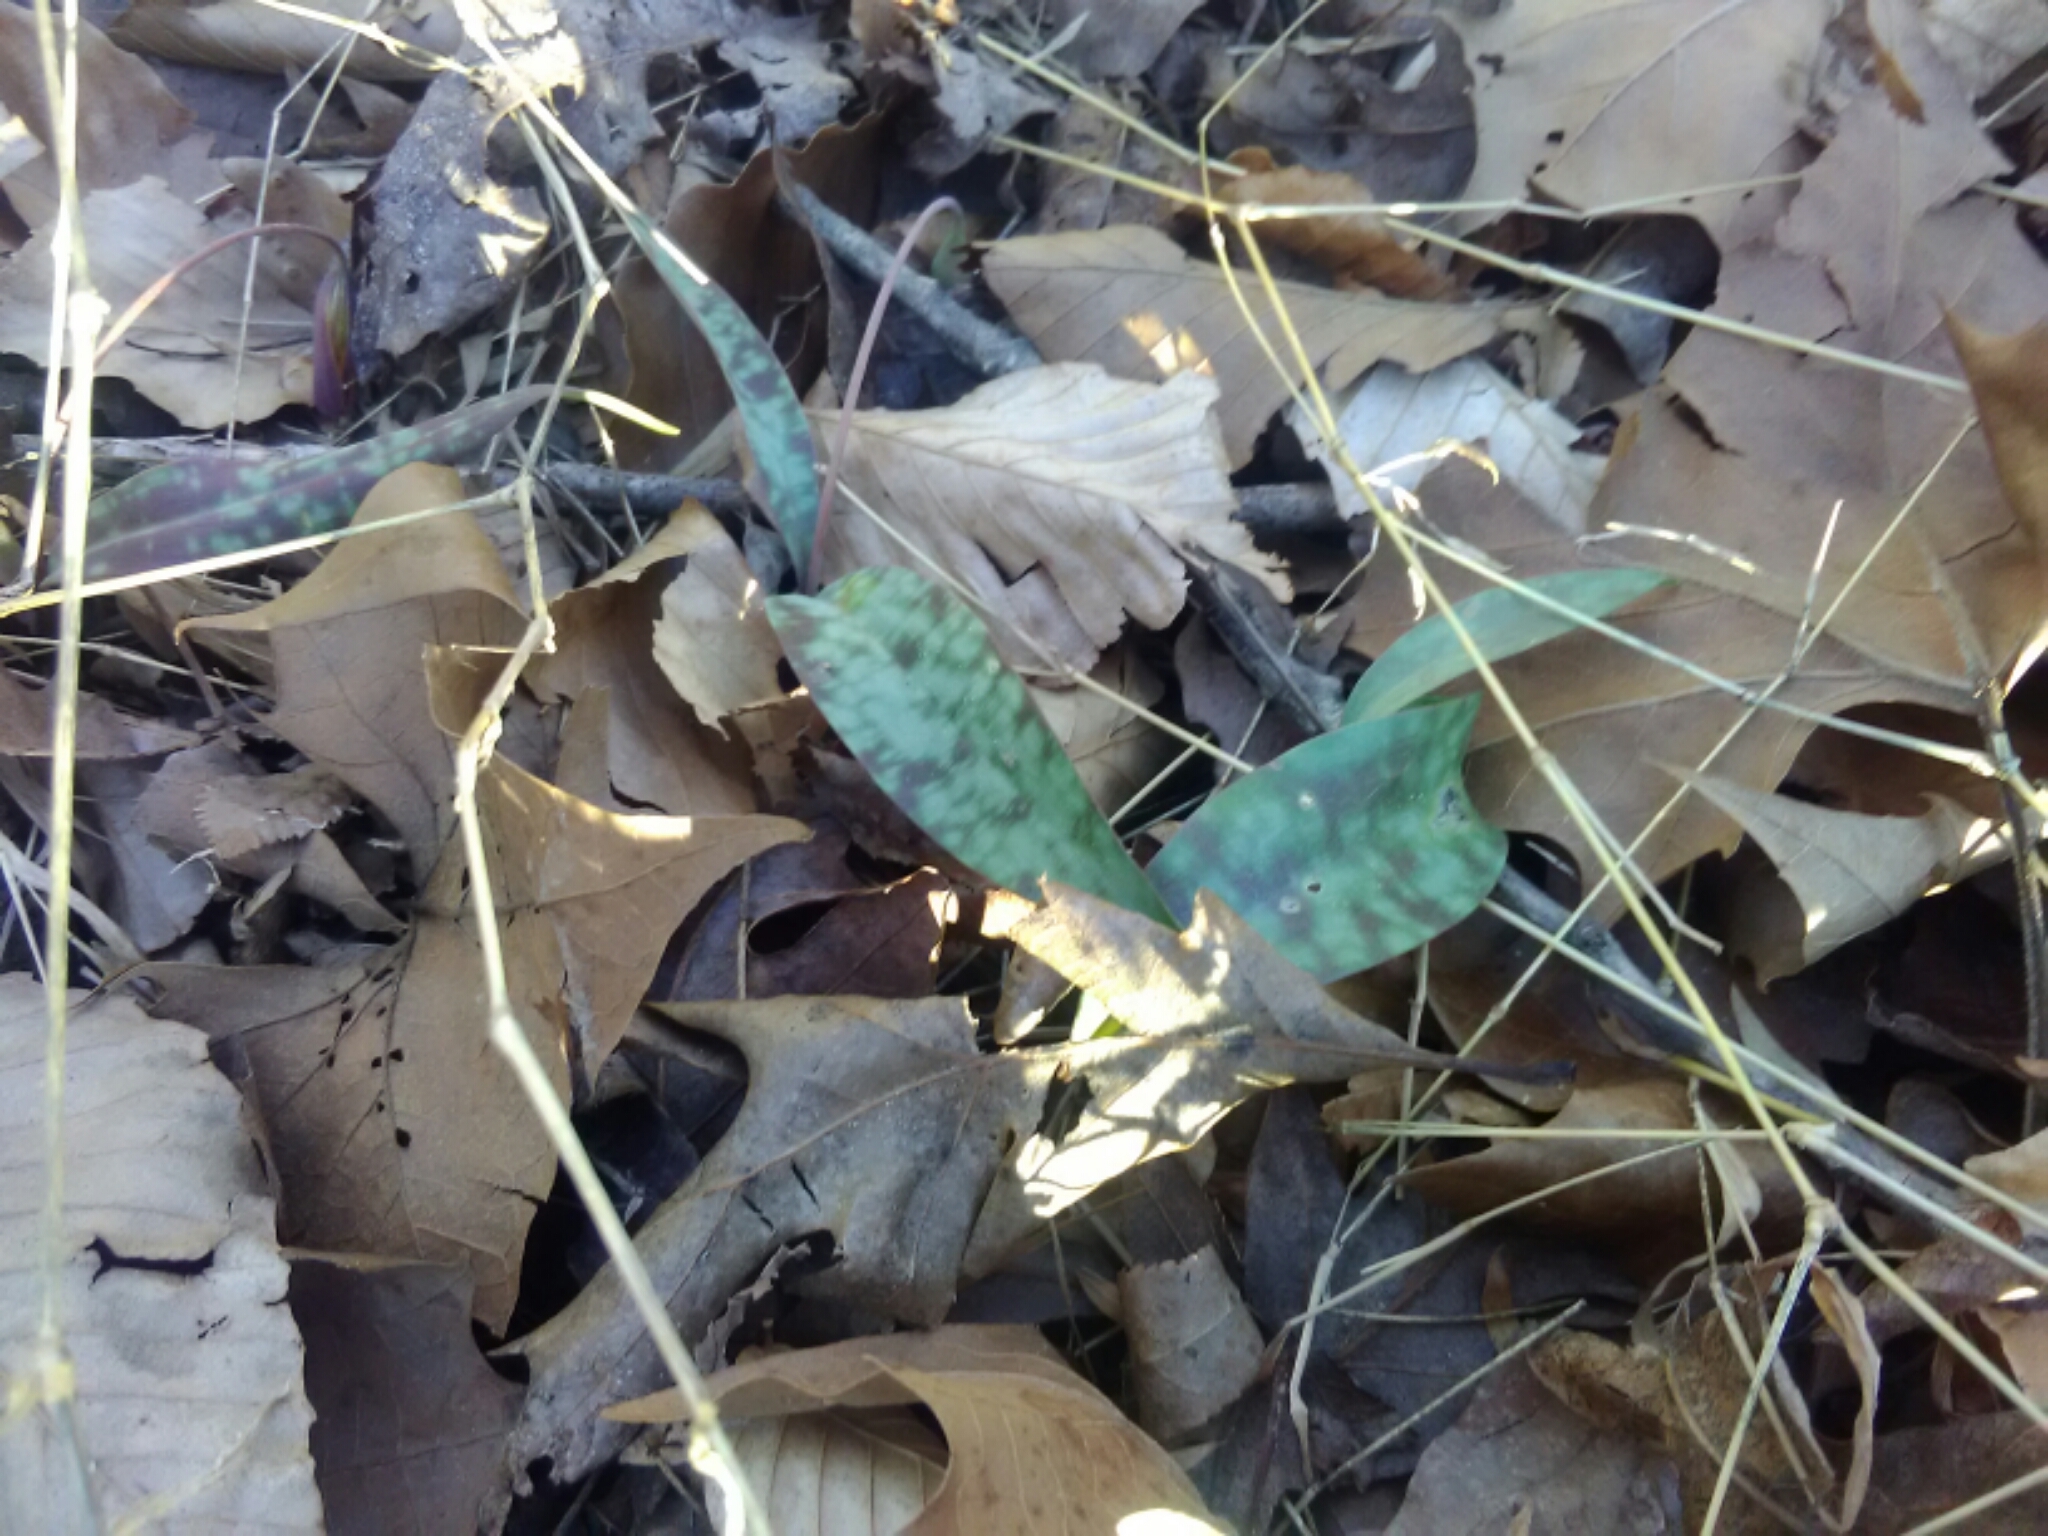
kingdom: Plantae
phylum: Tracheophyta
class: Liliopsida
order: Liliales
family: Liliaceae
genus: Erythronium
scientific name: Erythronium umbilicatum
